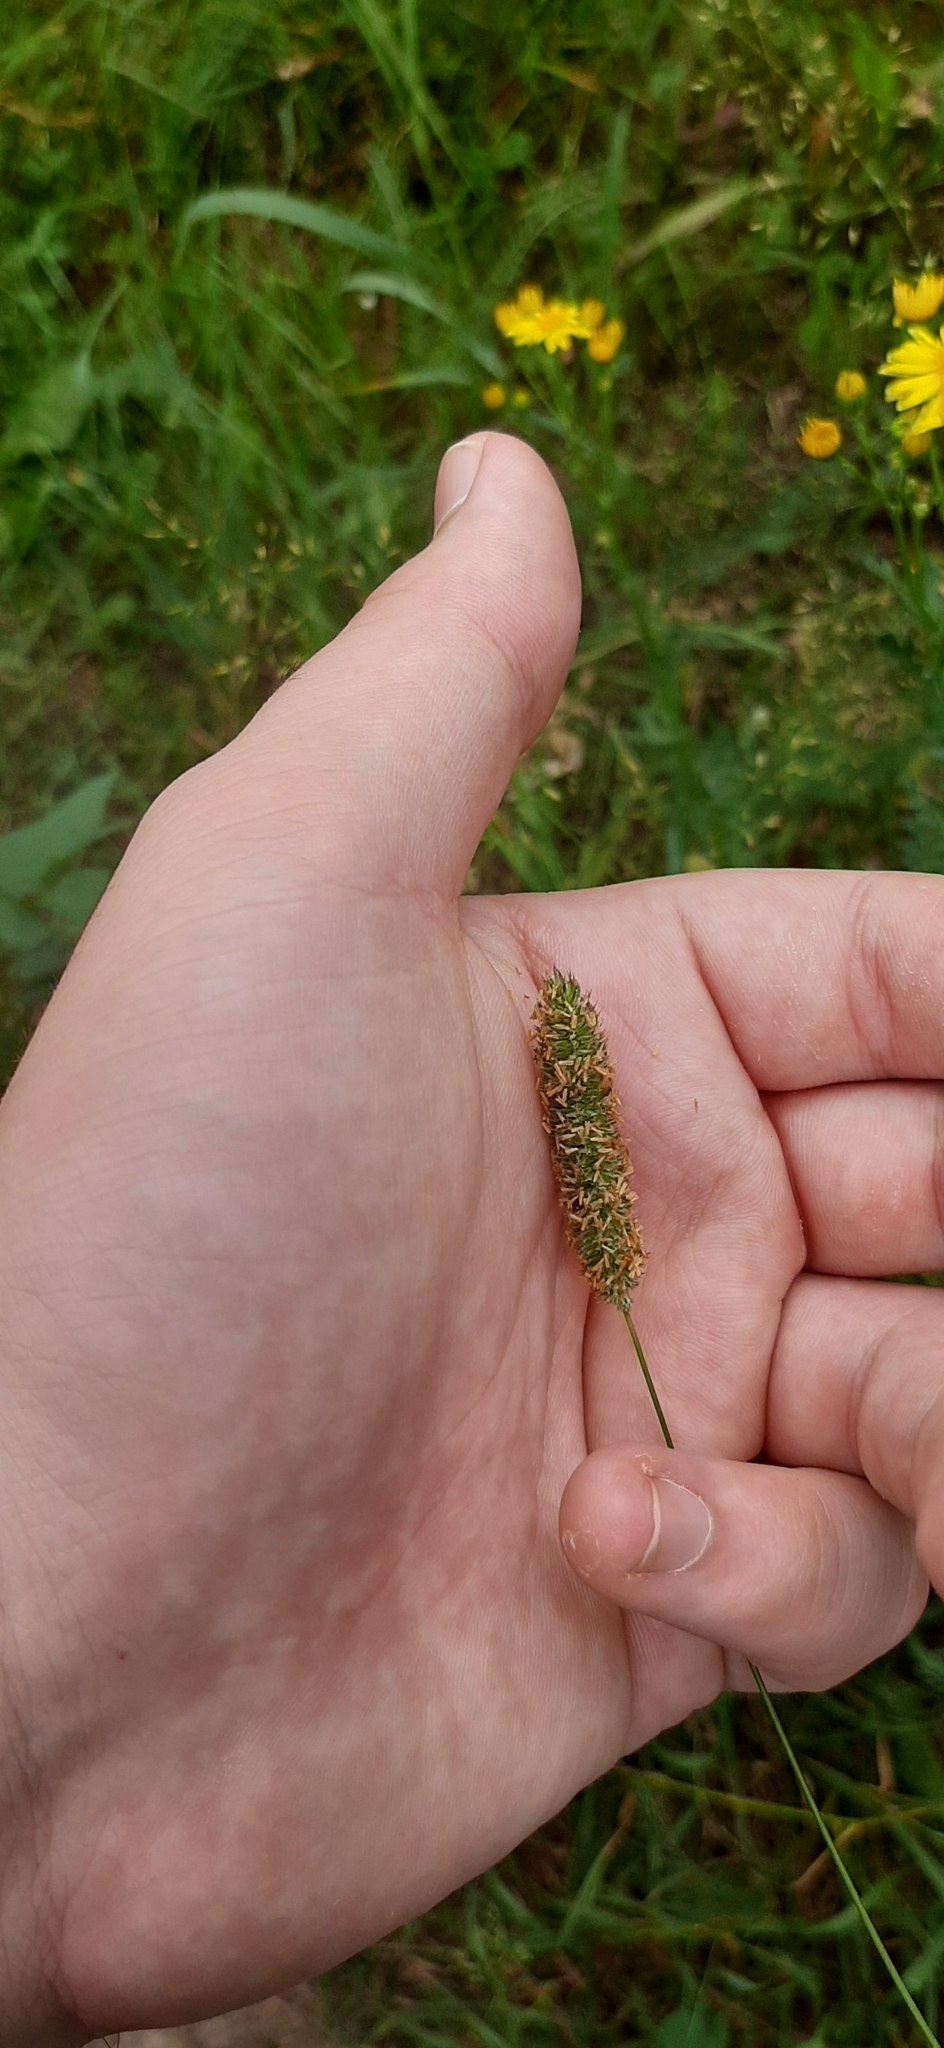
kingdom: Plantae
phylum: Tracheophyta
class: Liliopsida
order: Poales
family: Poaceae
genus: Phleum
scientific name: Phleum pratense
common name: Timothy grass
